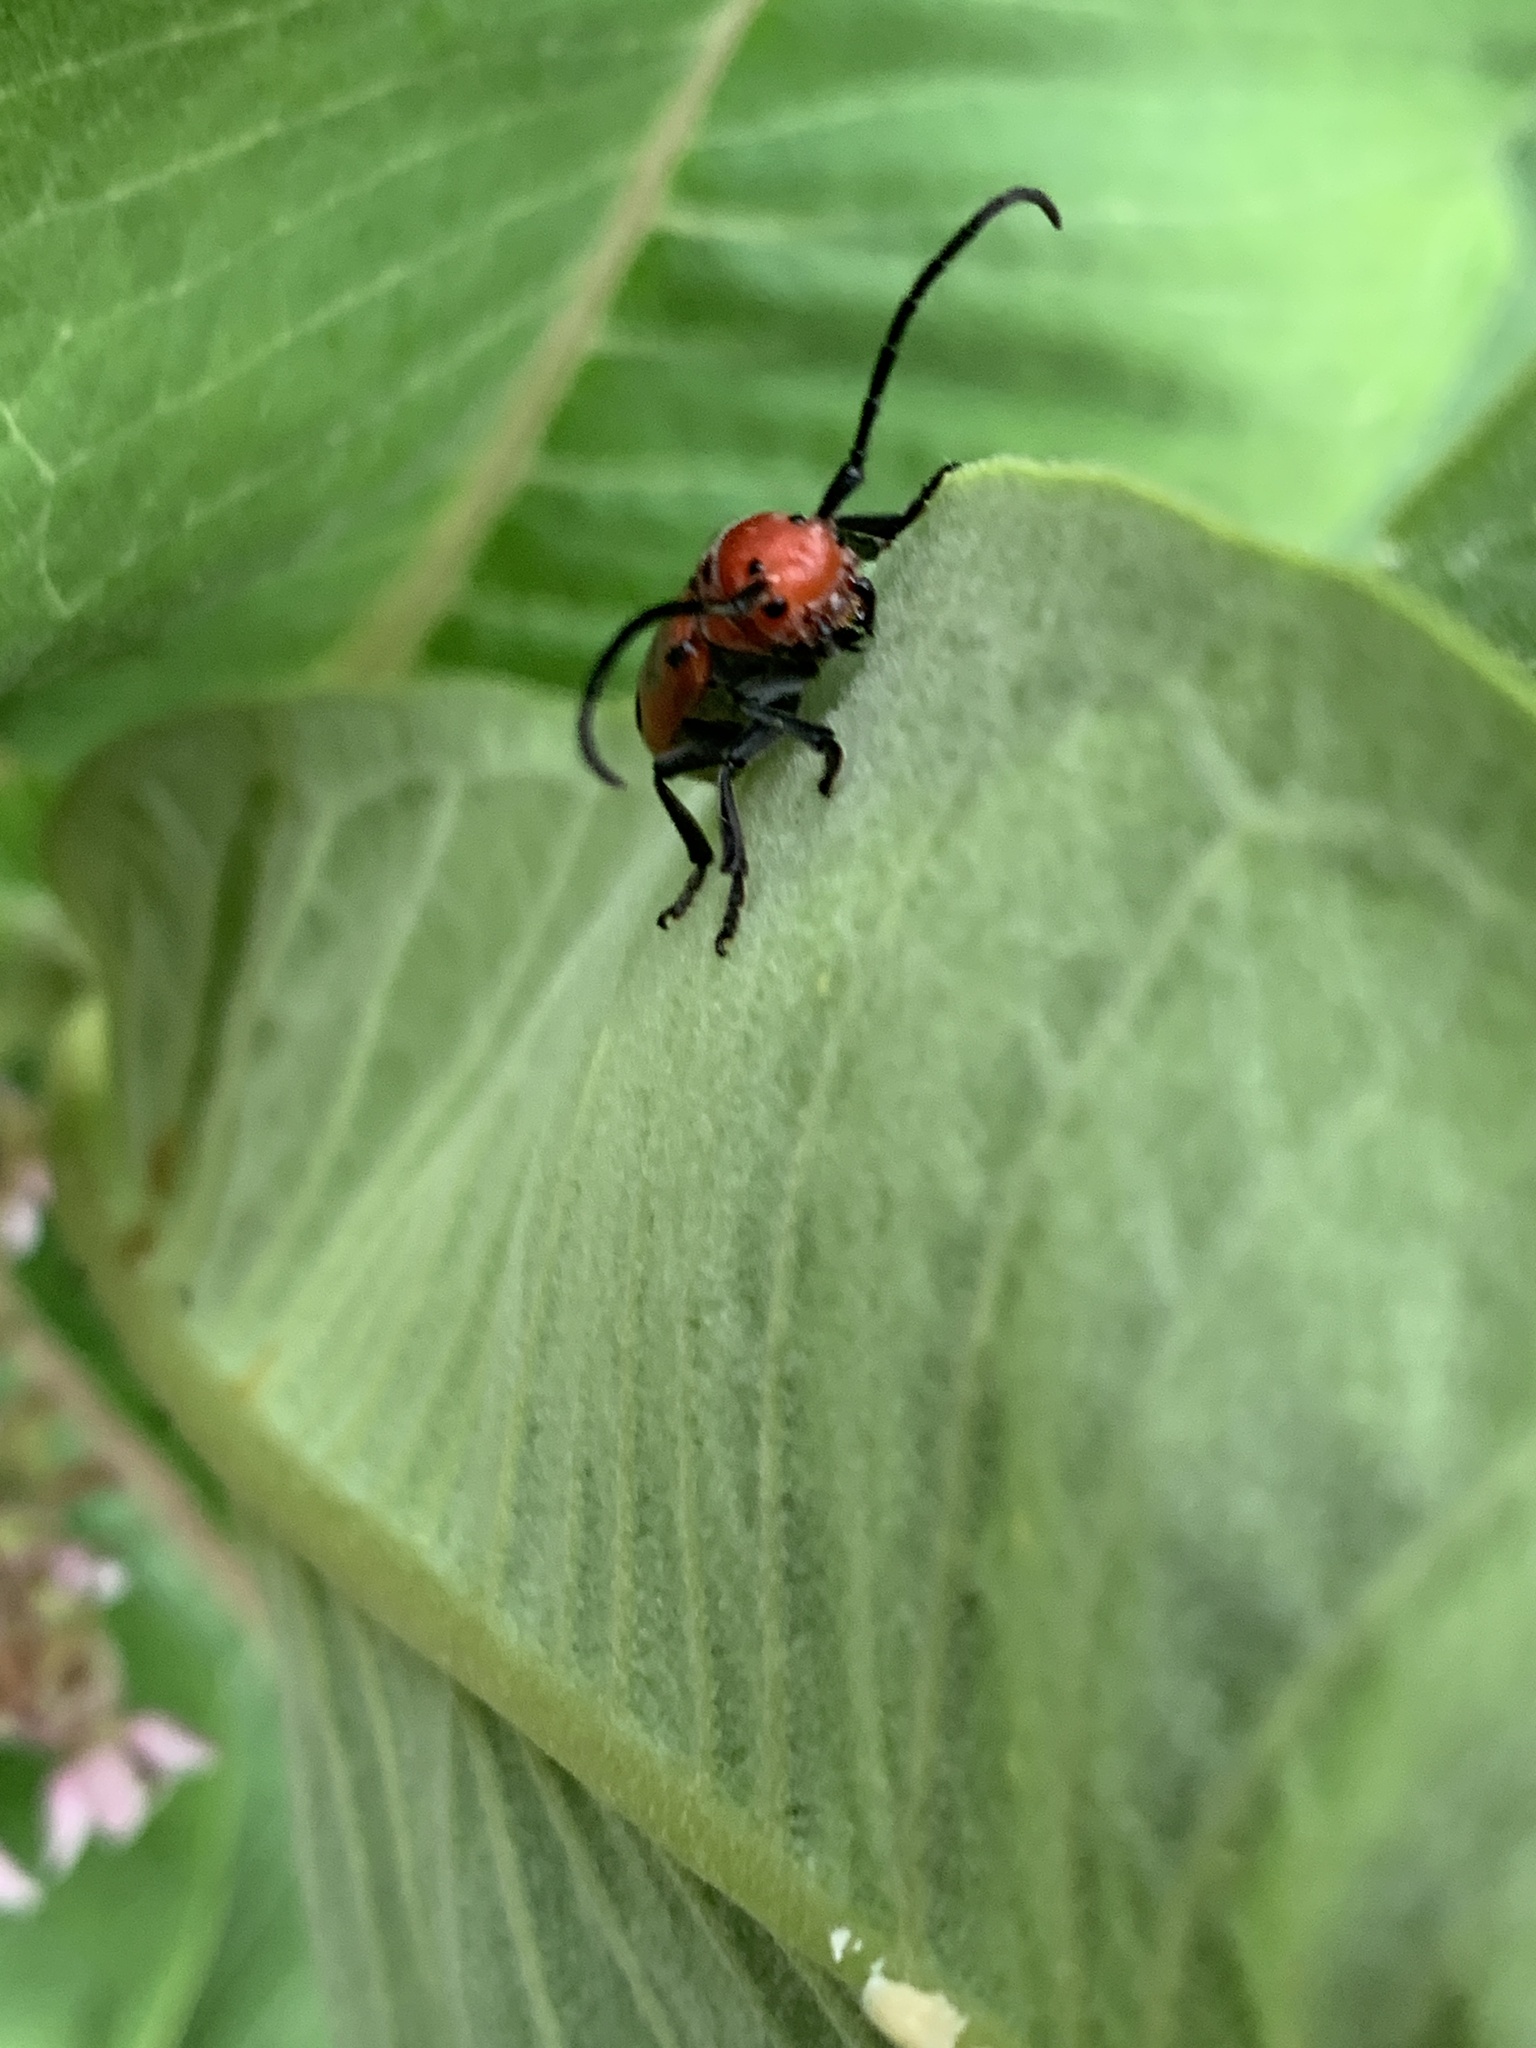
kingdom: Animalia
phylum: Arthropoda
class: Insecta
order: Coleoptera
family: Cerambycidae
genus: Tetraopes
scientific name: Tetraopes tetrophthalmus
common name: Red milkweed beetle
